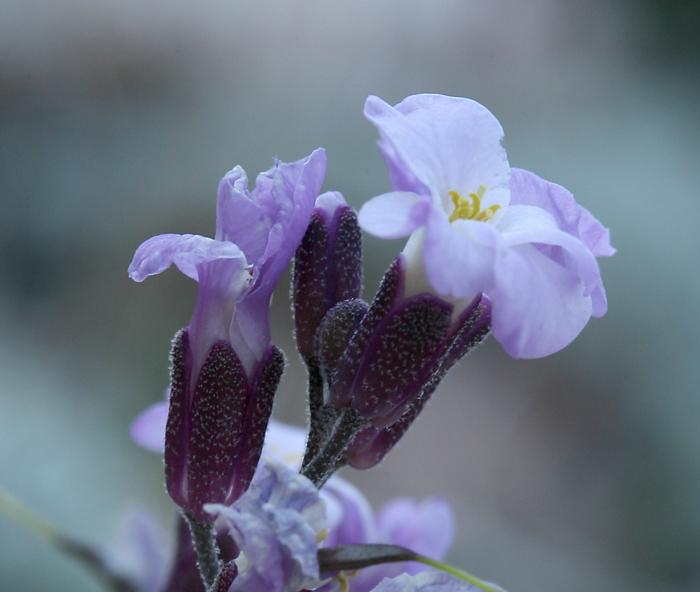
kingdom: Plantae
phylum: Tracheophyta
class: Magnoliopsida
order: Brassicales
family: Brassicaceae
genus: Boechera
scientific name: Boechera parishii
